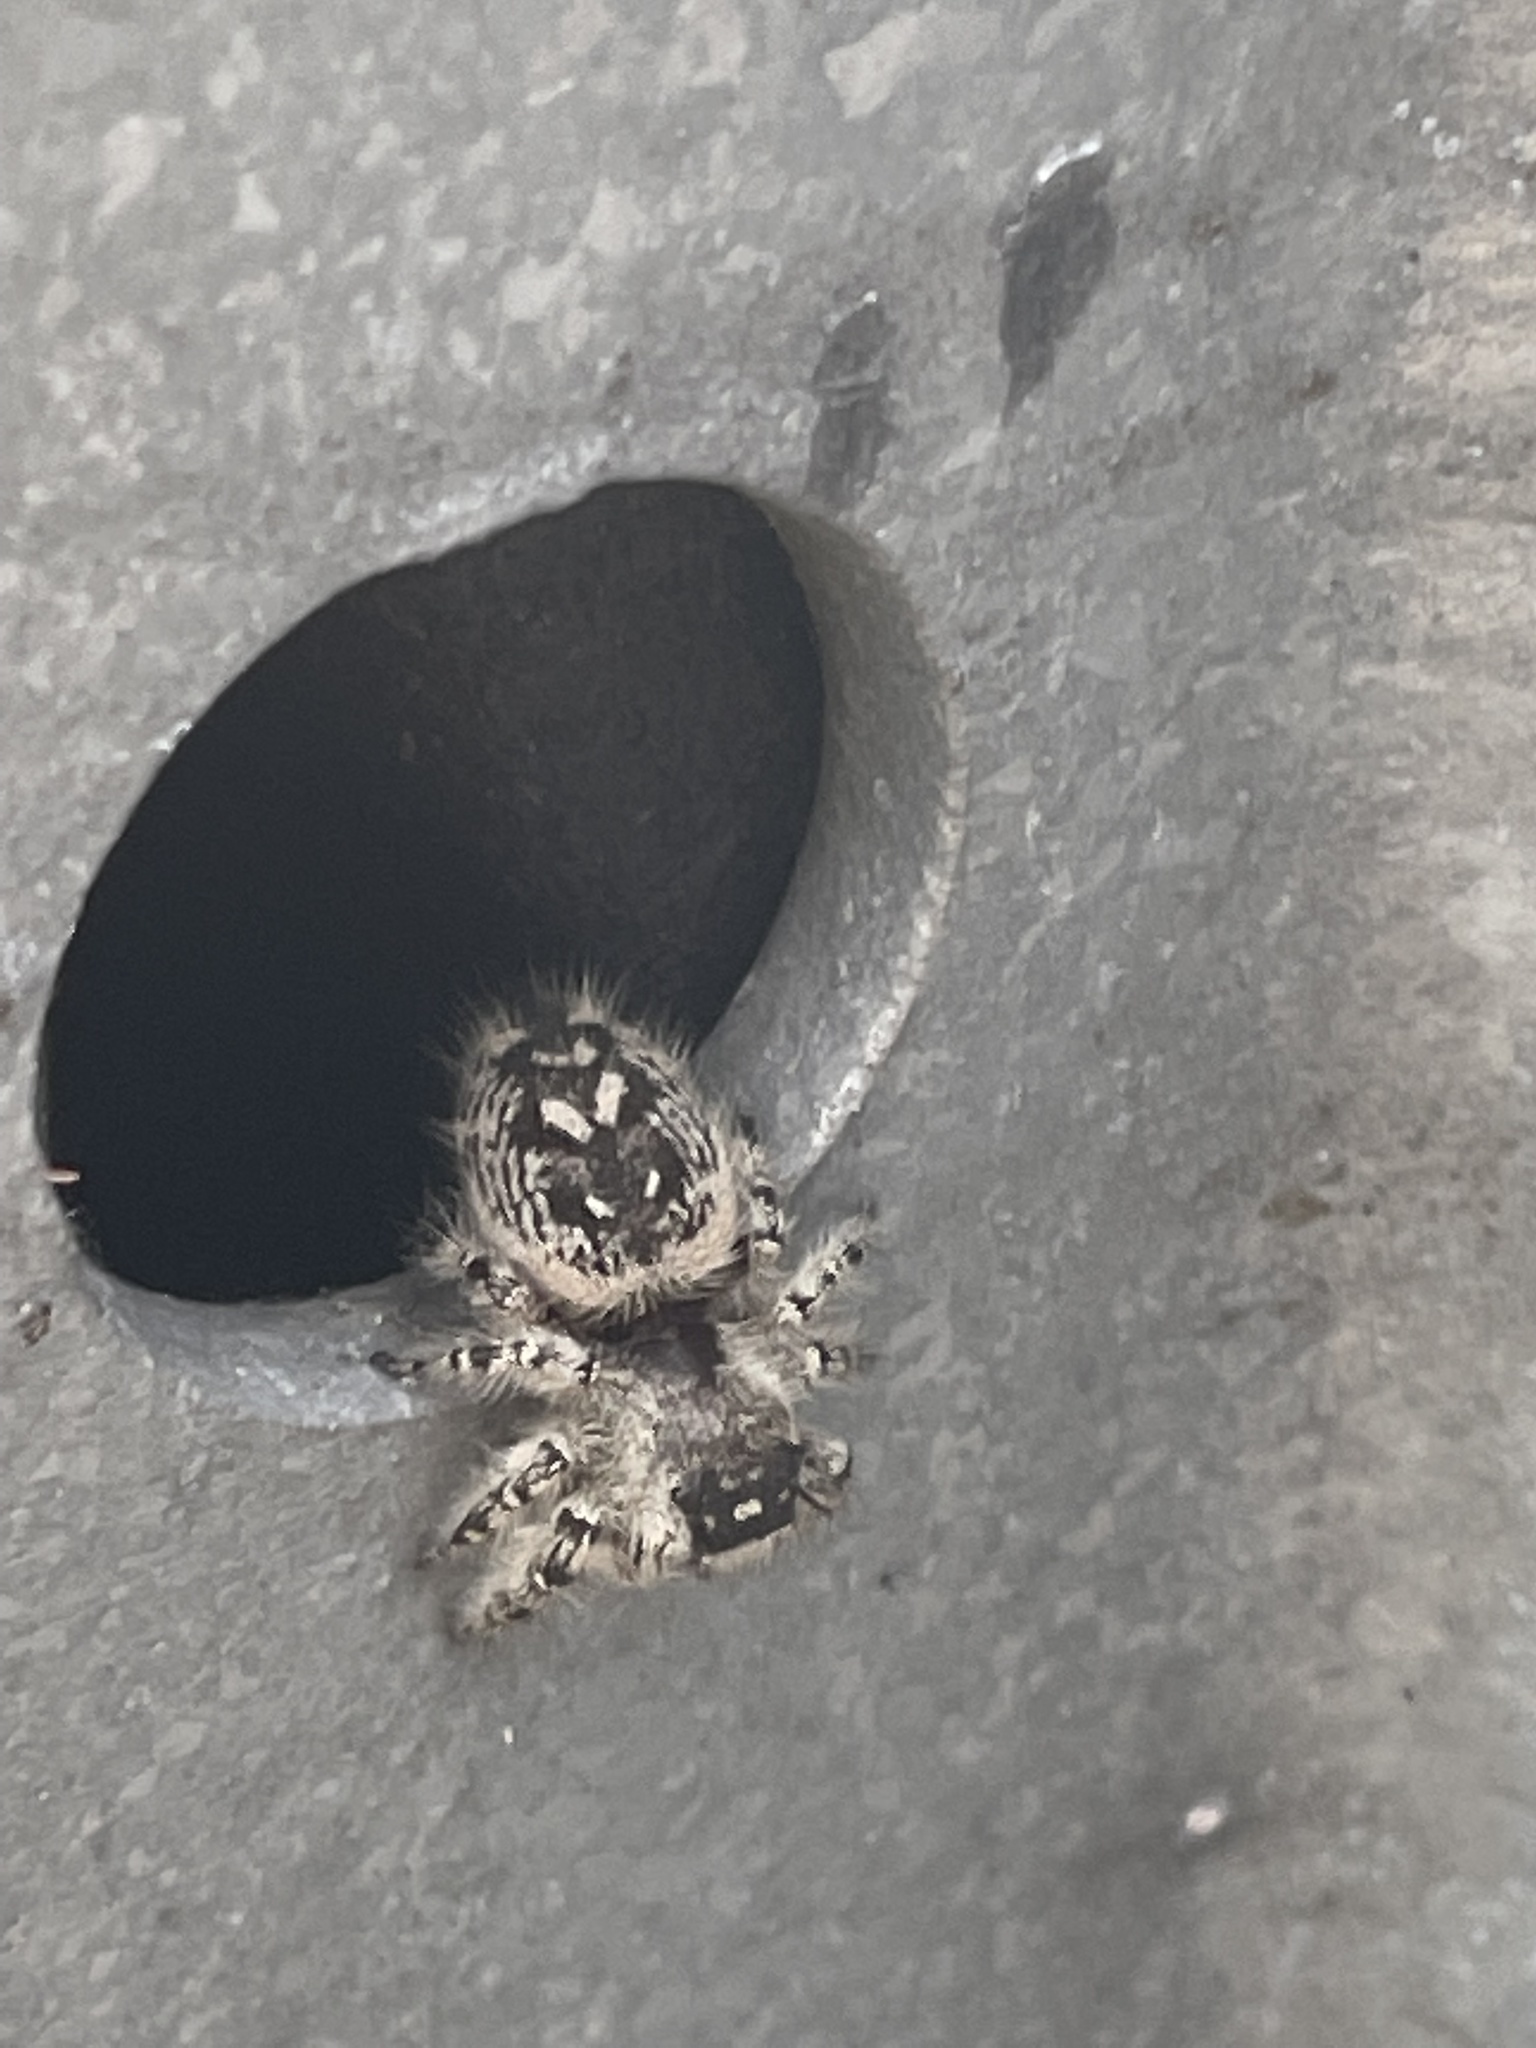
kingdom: Animalia
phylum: Arthropoda
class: Arachnida
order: Araneae
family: Salticidae
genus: Phidippus
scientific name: Phidippus otiosus
